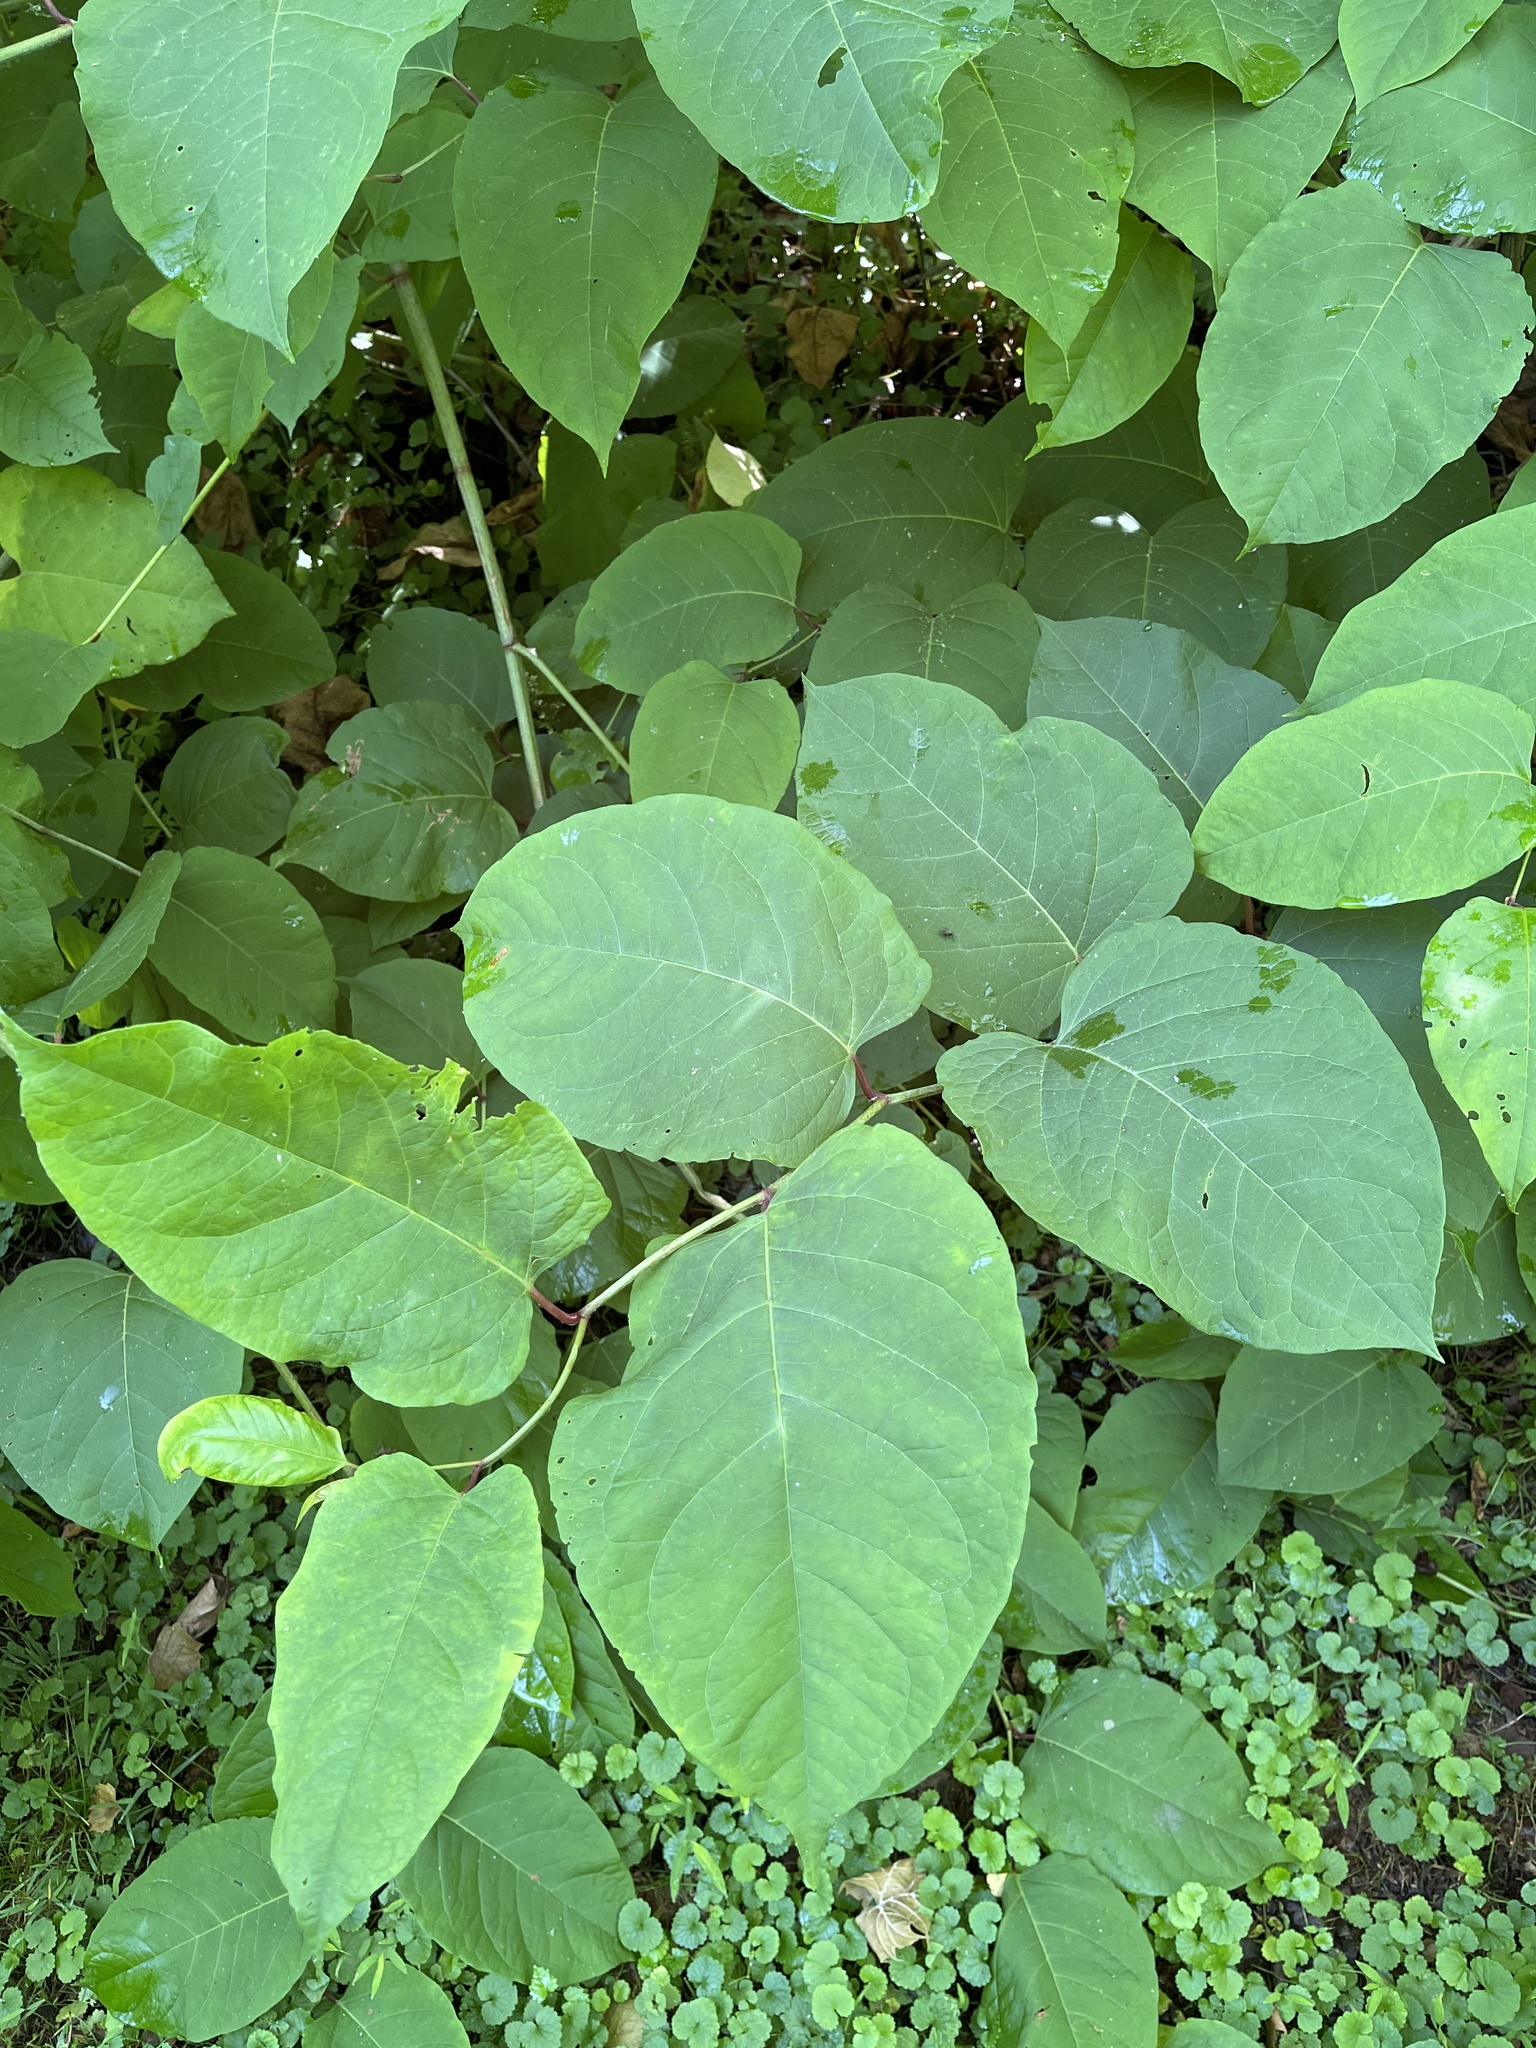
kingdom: Plantae
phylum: Tracheophyta
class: Magnoliopsida
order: Caryophyllales
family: Polygonaceae
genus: Reynoutria
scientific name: Reynoutria japonica
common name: Japanese knotweed
